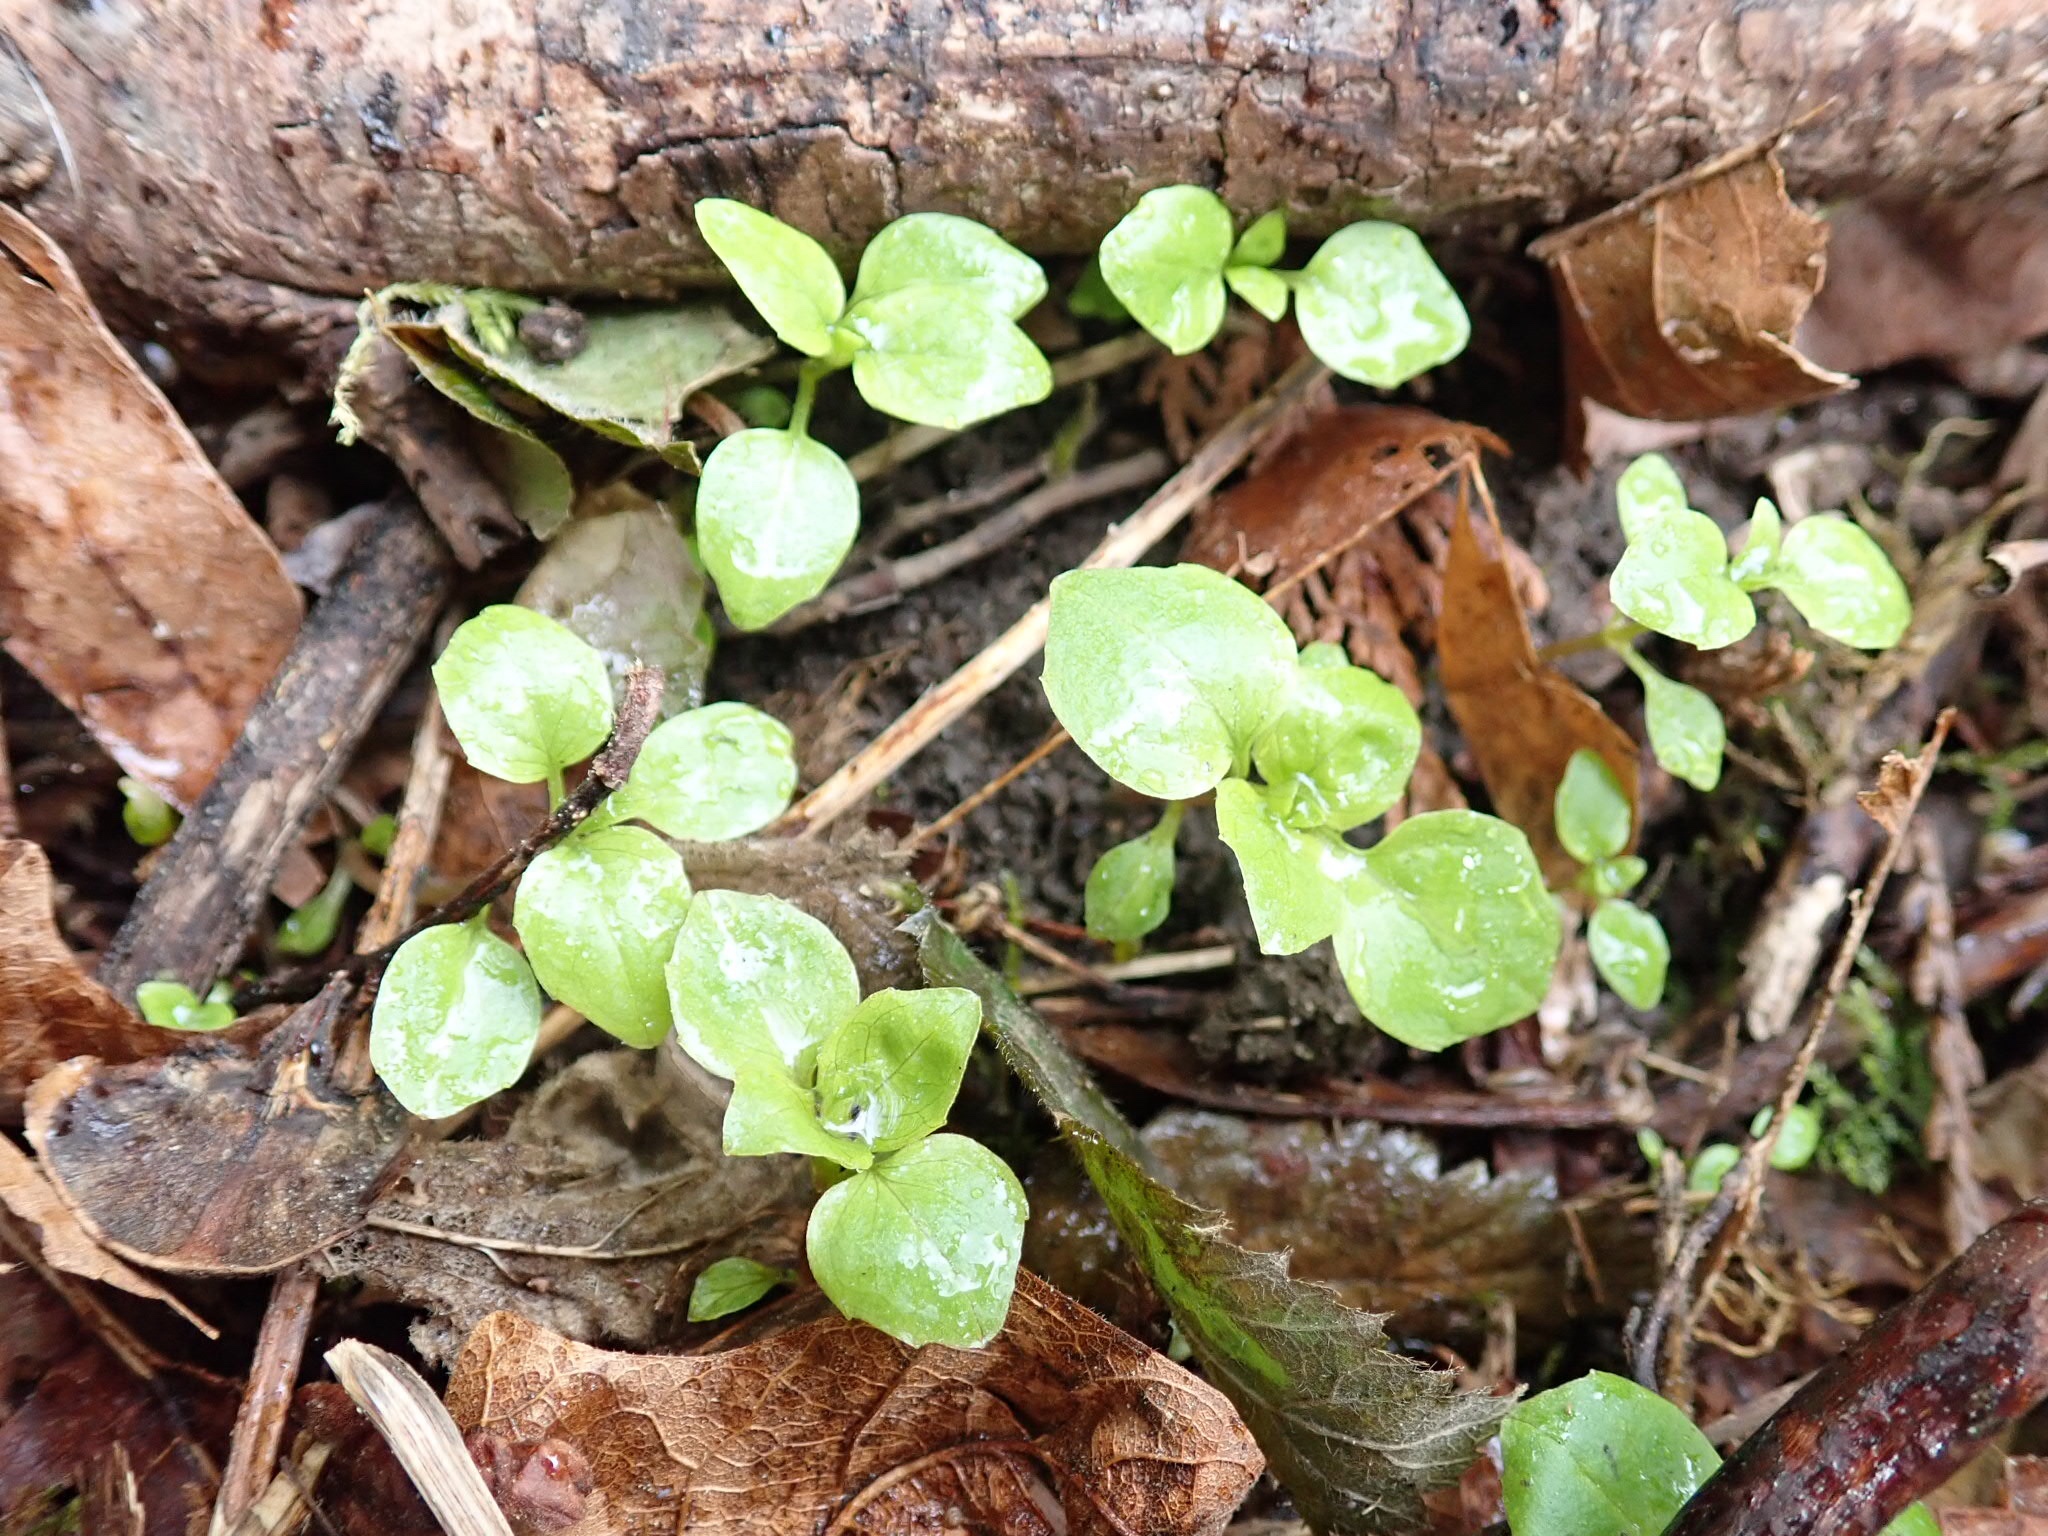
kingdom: Plantae
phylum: Tracheophyta
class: Magnoliopsida
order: Myrtales
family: Onagraceae
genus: Circaea
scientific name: Circaea alpina
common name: Alpine enchanter's-nightshade
